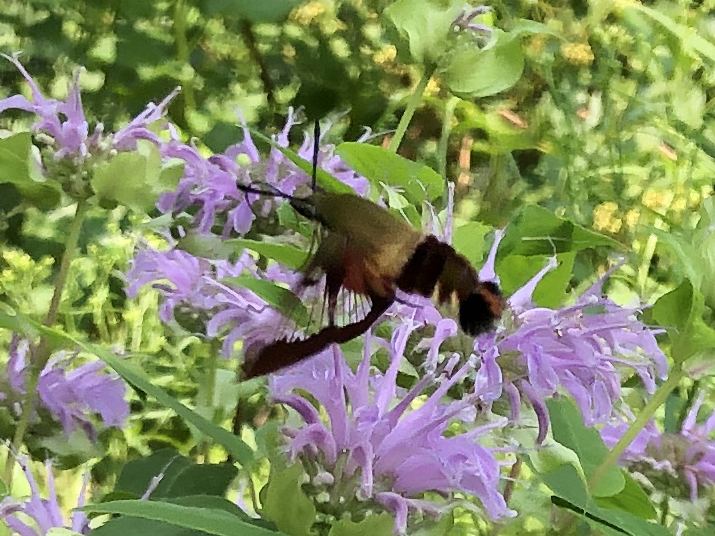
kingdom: Animalia
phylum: Arthropoda
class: Insecta
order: Lepidoptera
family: Sphingidae
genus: Hemaris
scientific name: Hemaris thysbe
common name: Common clear-wing
